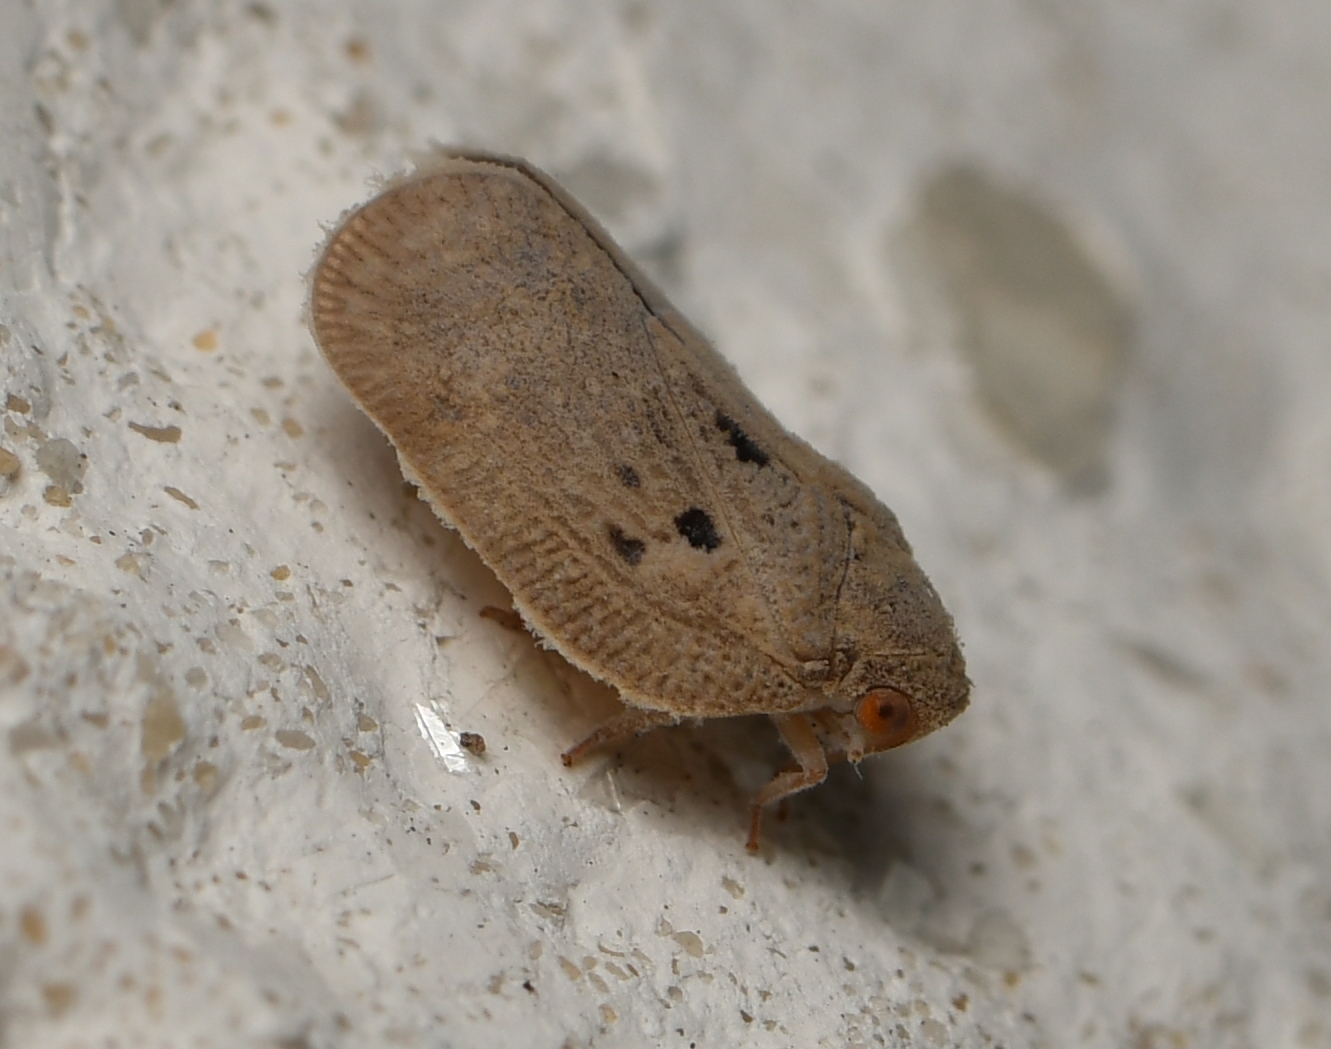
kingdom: Animalia
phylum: Arthropoda
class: Insecta
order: Hemiptera
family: Flatidae
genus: Melormenis
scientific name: Melormenis basalis
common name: Puerto rican planthopper
